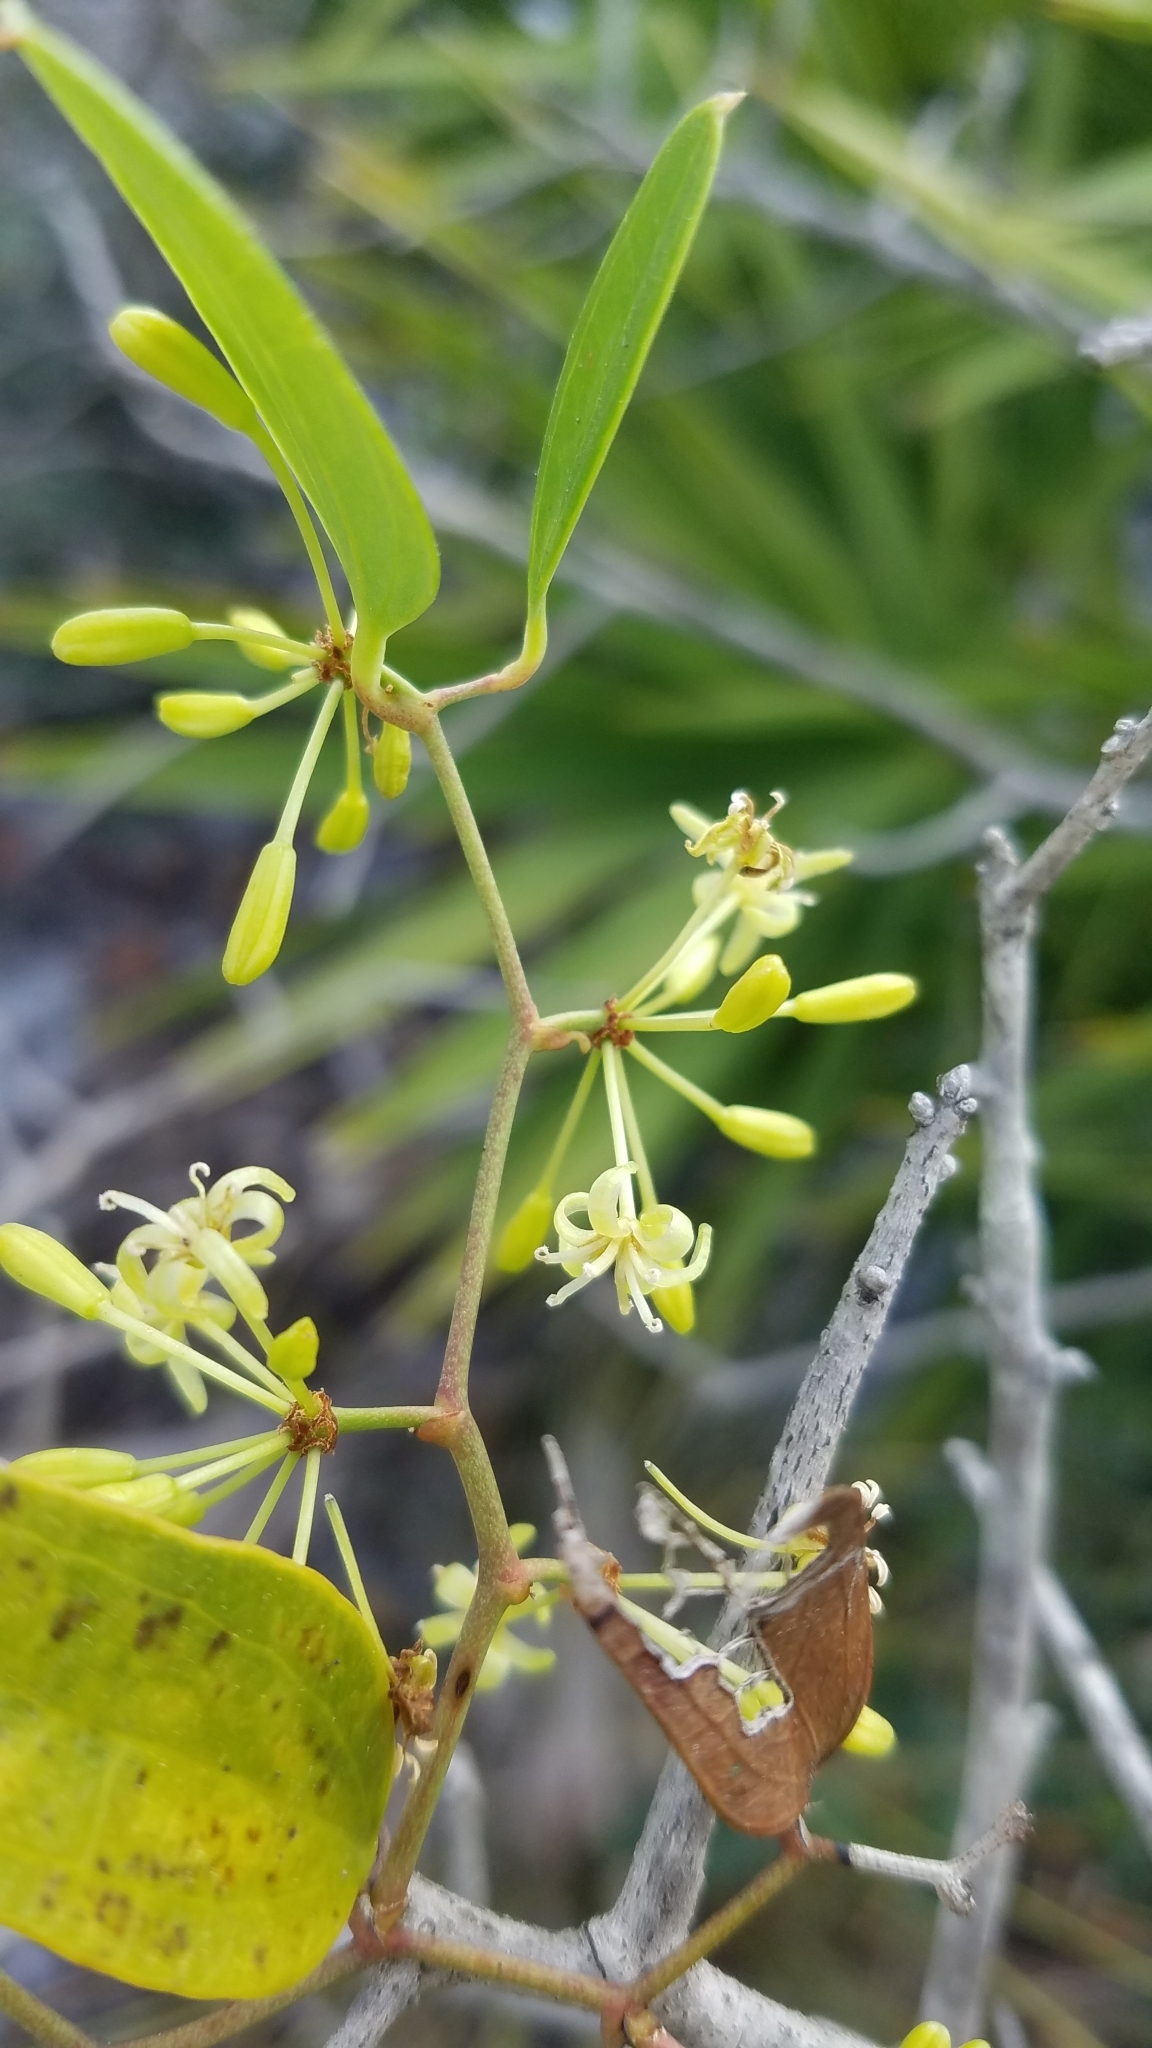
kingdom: Plantae
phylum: Tracheophyta
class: Liliopsida
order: Liliales
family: Smilacaceae
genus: Smilax
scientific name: Smilax auriculata
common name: Wild bamboo
